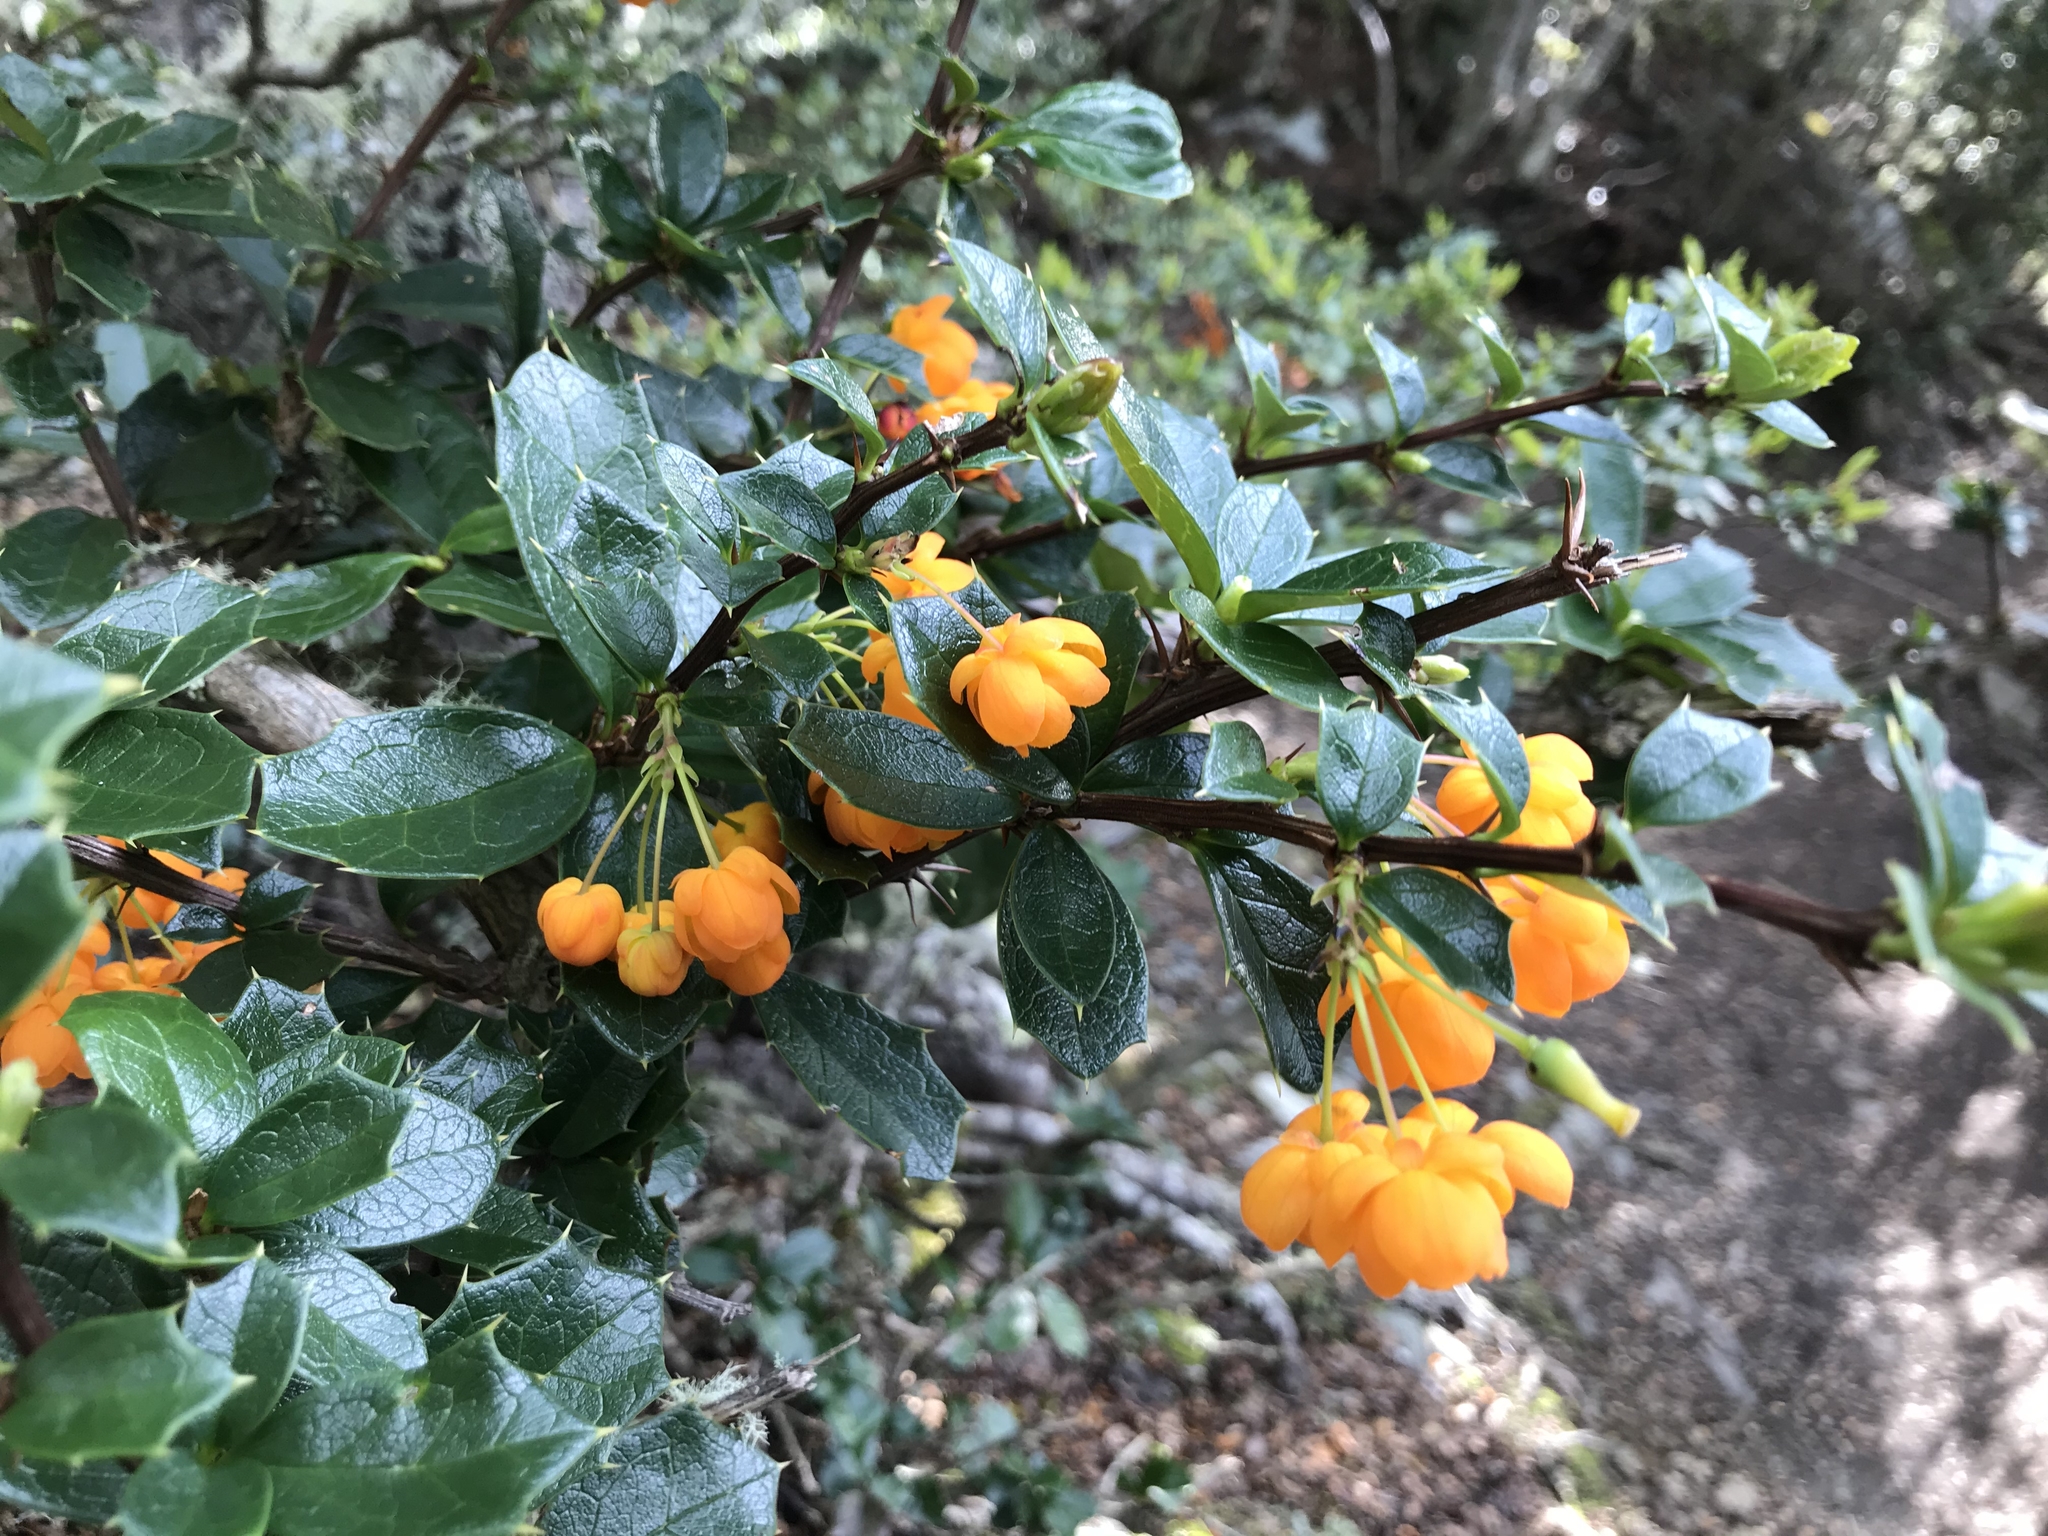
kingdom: Plantae
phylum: Tracheophyta
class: Magnoliopsida
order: Ranunculales
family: Berberidaceae
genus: Berberis
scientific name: Berberis ilicifolia
